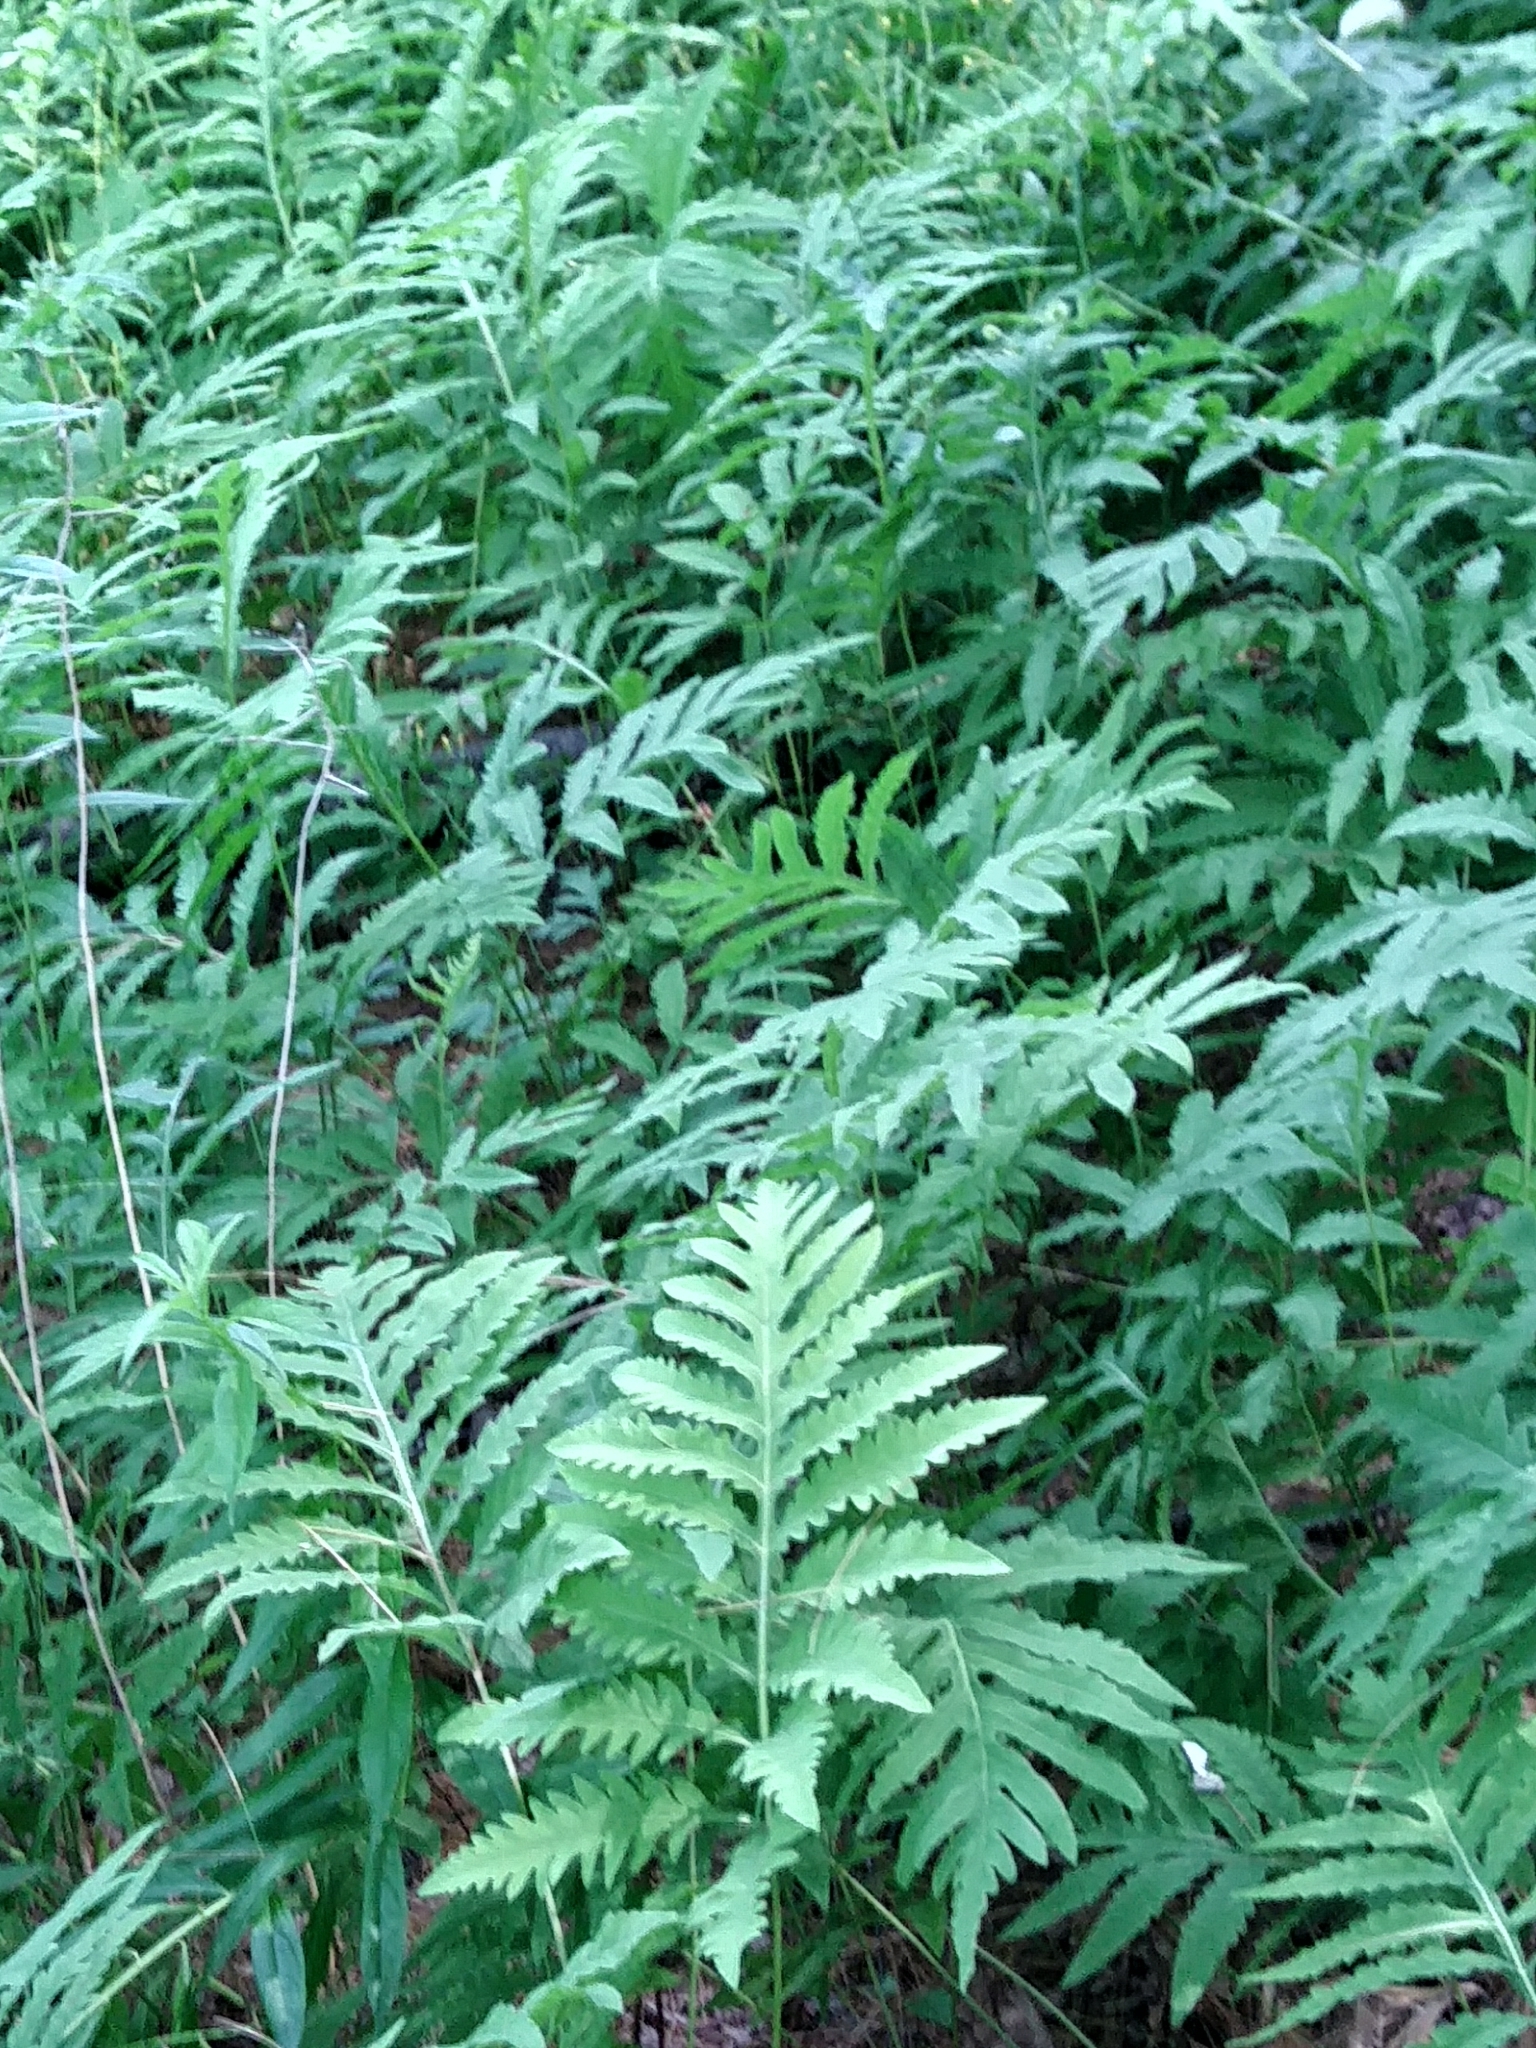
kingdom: Plantae
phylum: Tracheophyta
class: Polypodiopsida
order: Polypodiales
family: Onocleaceae
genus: Onoclea
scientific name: Onoclea sensibilis
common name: Sensitive fern
